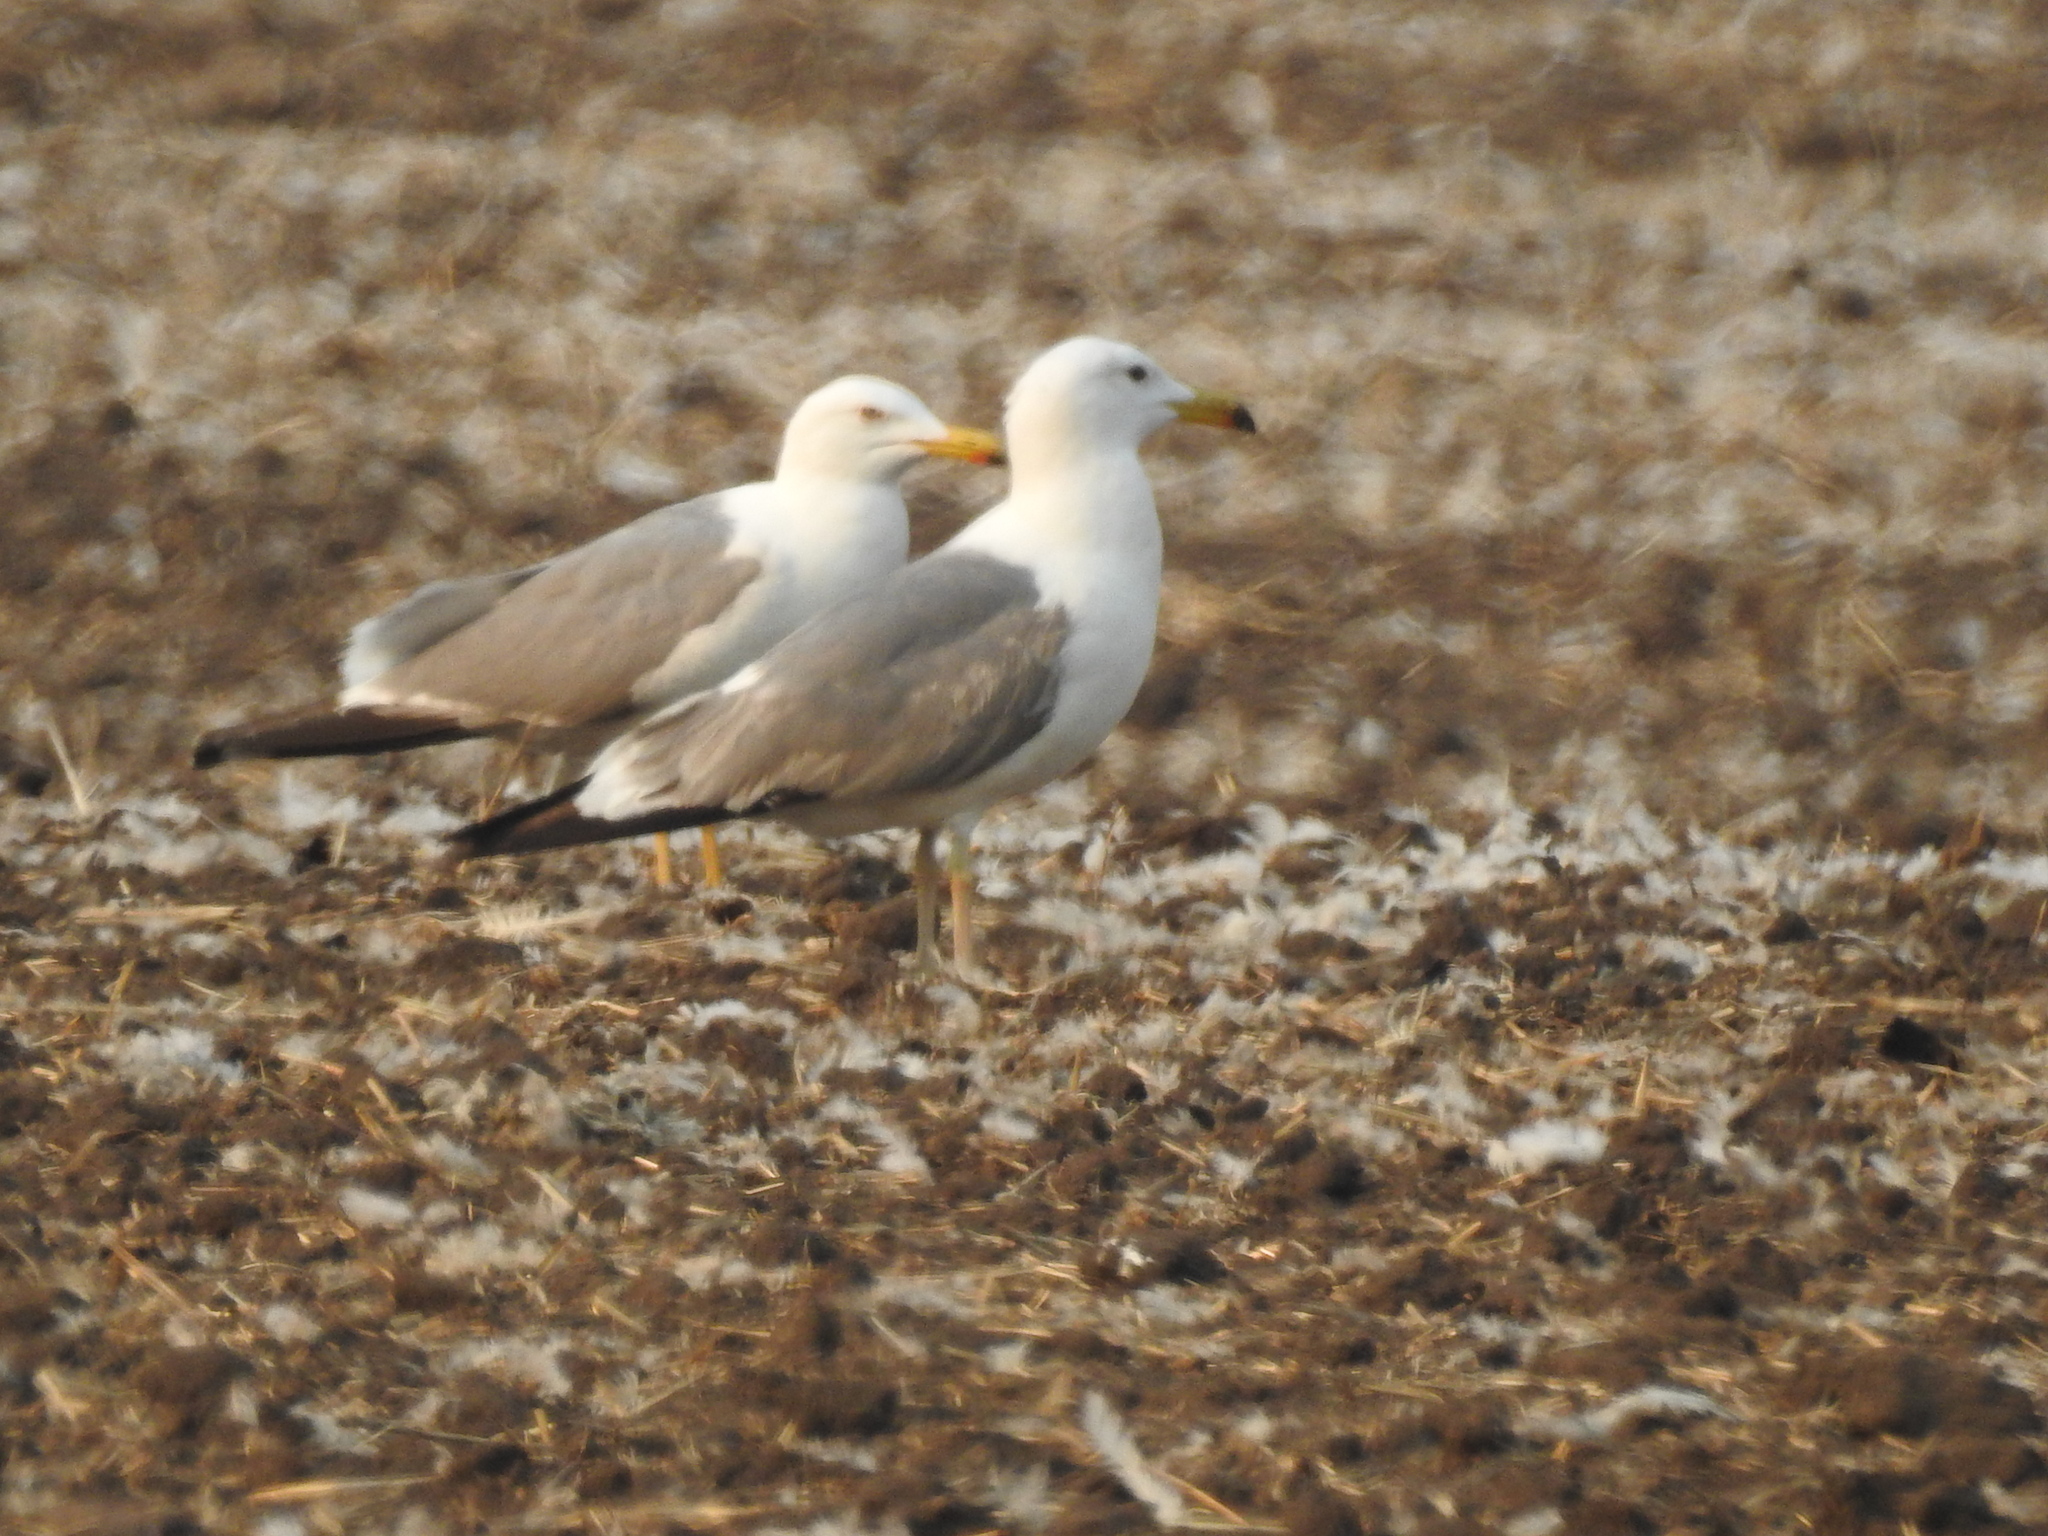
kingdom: Animalia
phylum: Chordata
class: Aves
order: Charadriiformes
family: Laridae
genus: Larus
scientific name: Larus fuscus
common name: Lesser black-backed gull
